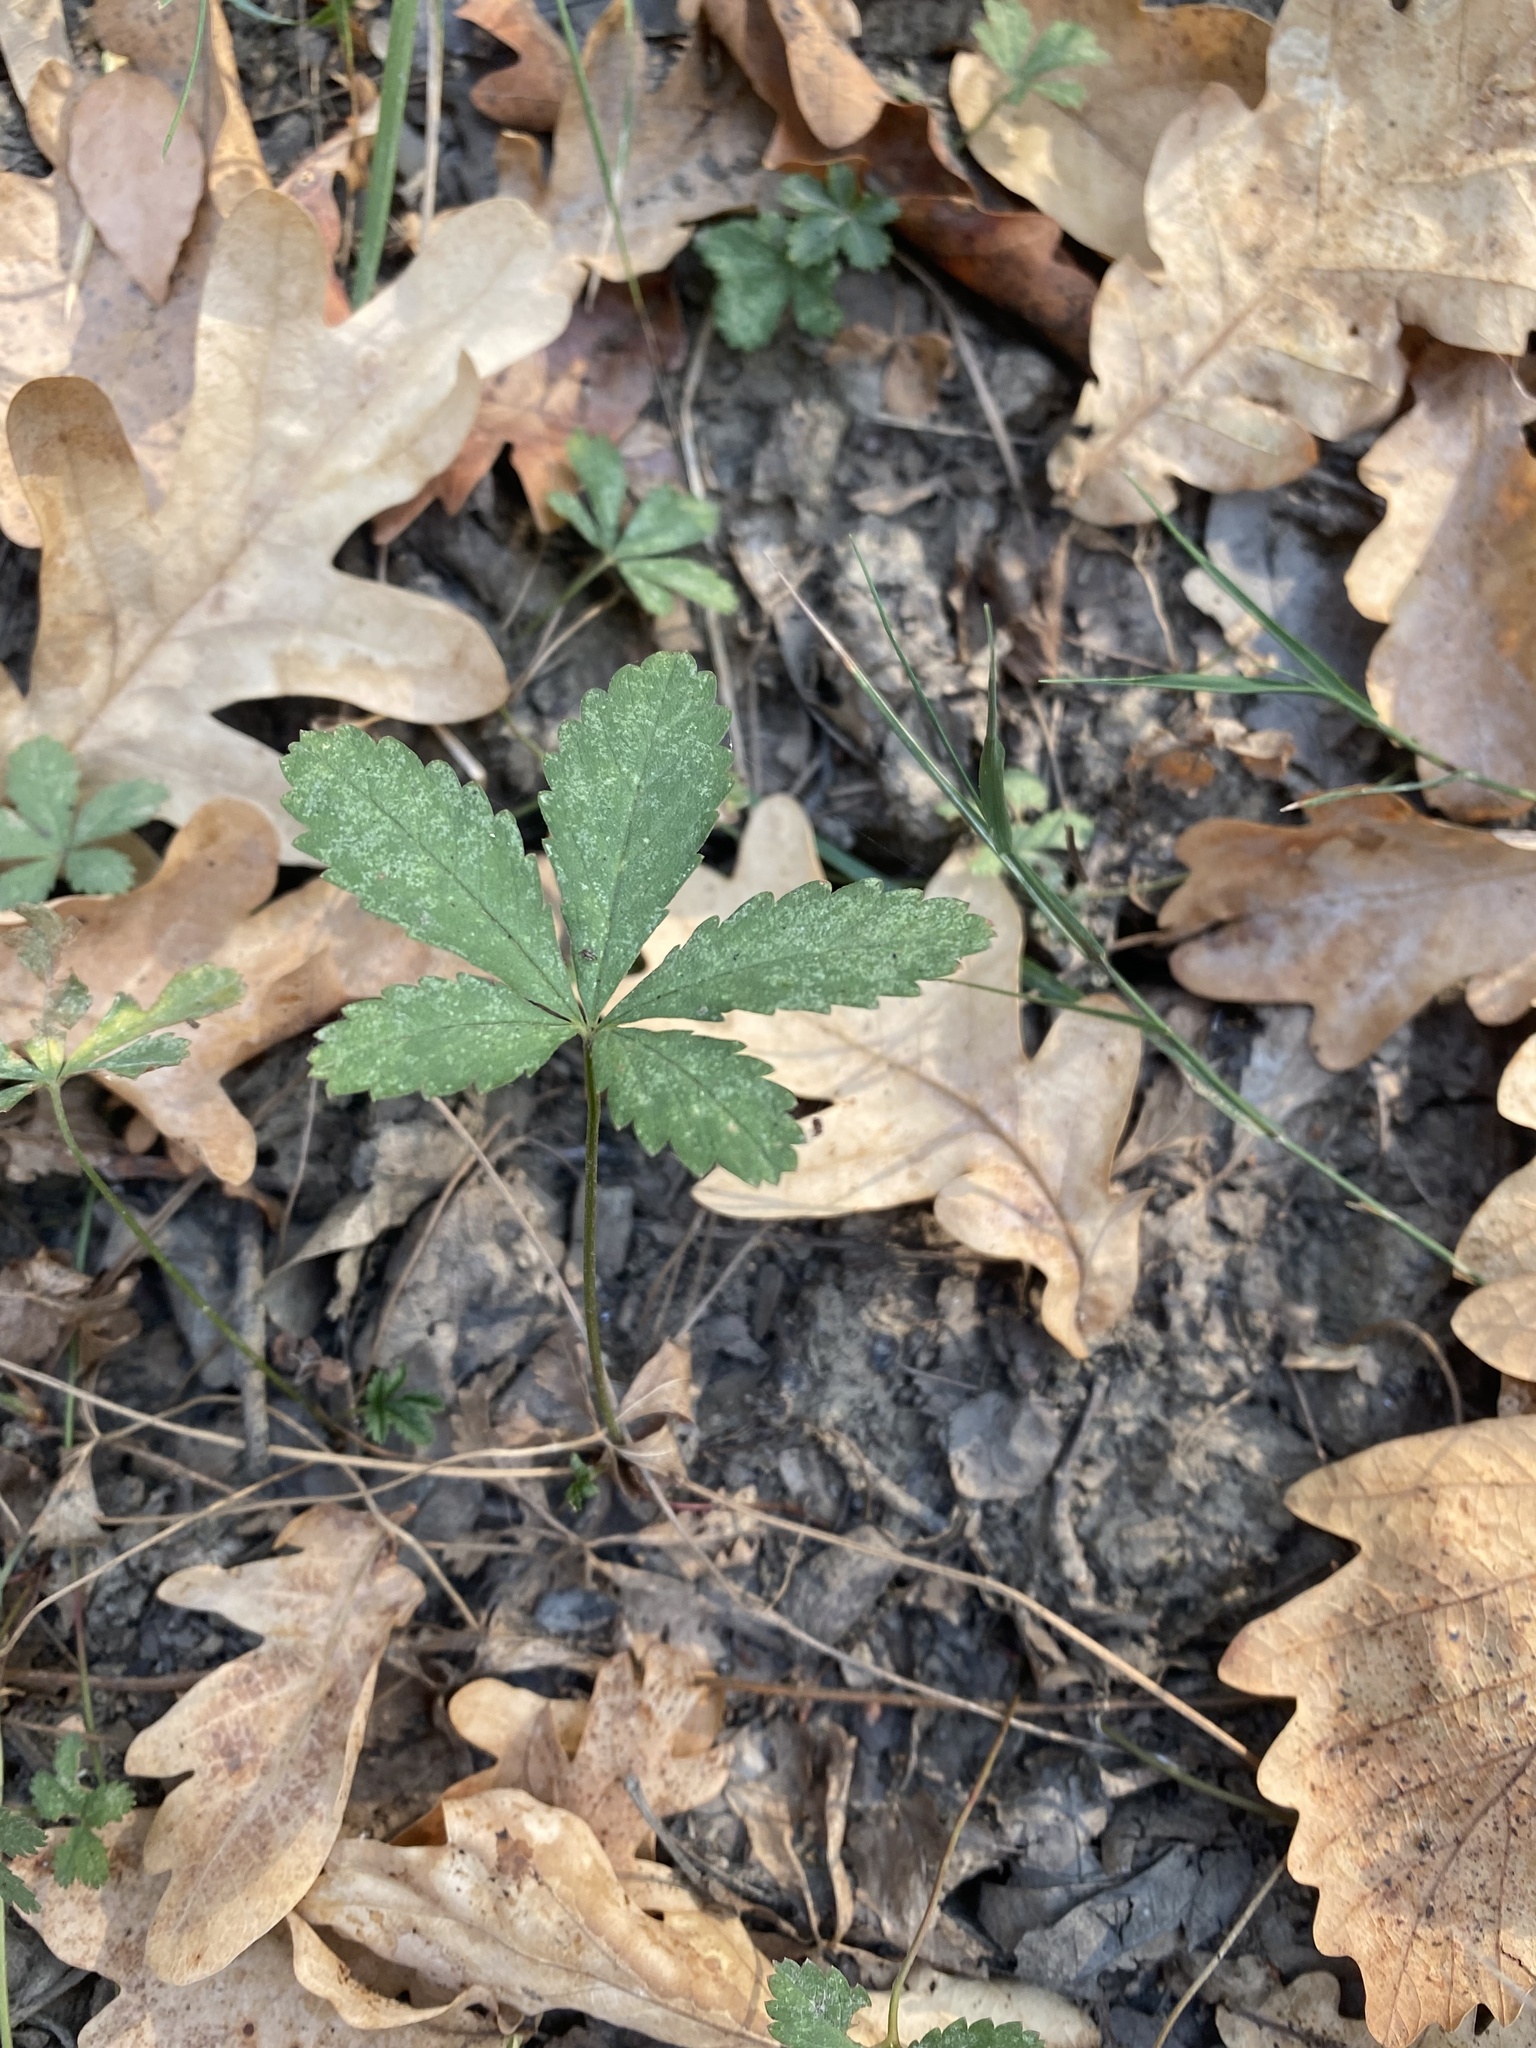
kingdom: Plantae
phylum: Tracheophyta
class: Magnoliopsida
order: Rosales
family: Rosaceae
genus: Potentilla
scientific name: Potentilla reptans
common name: Creeping cinquefoil
